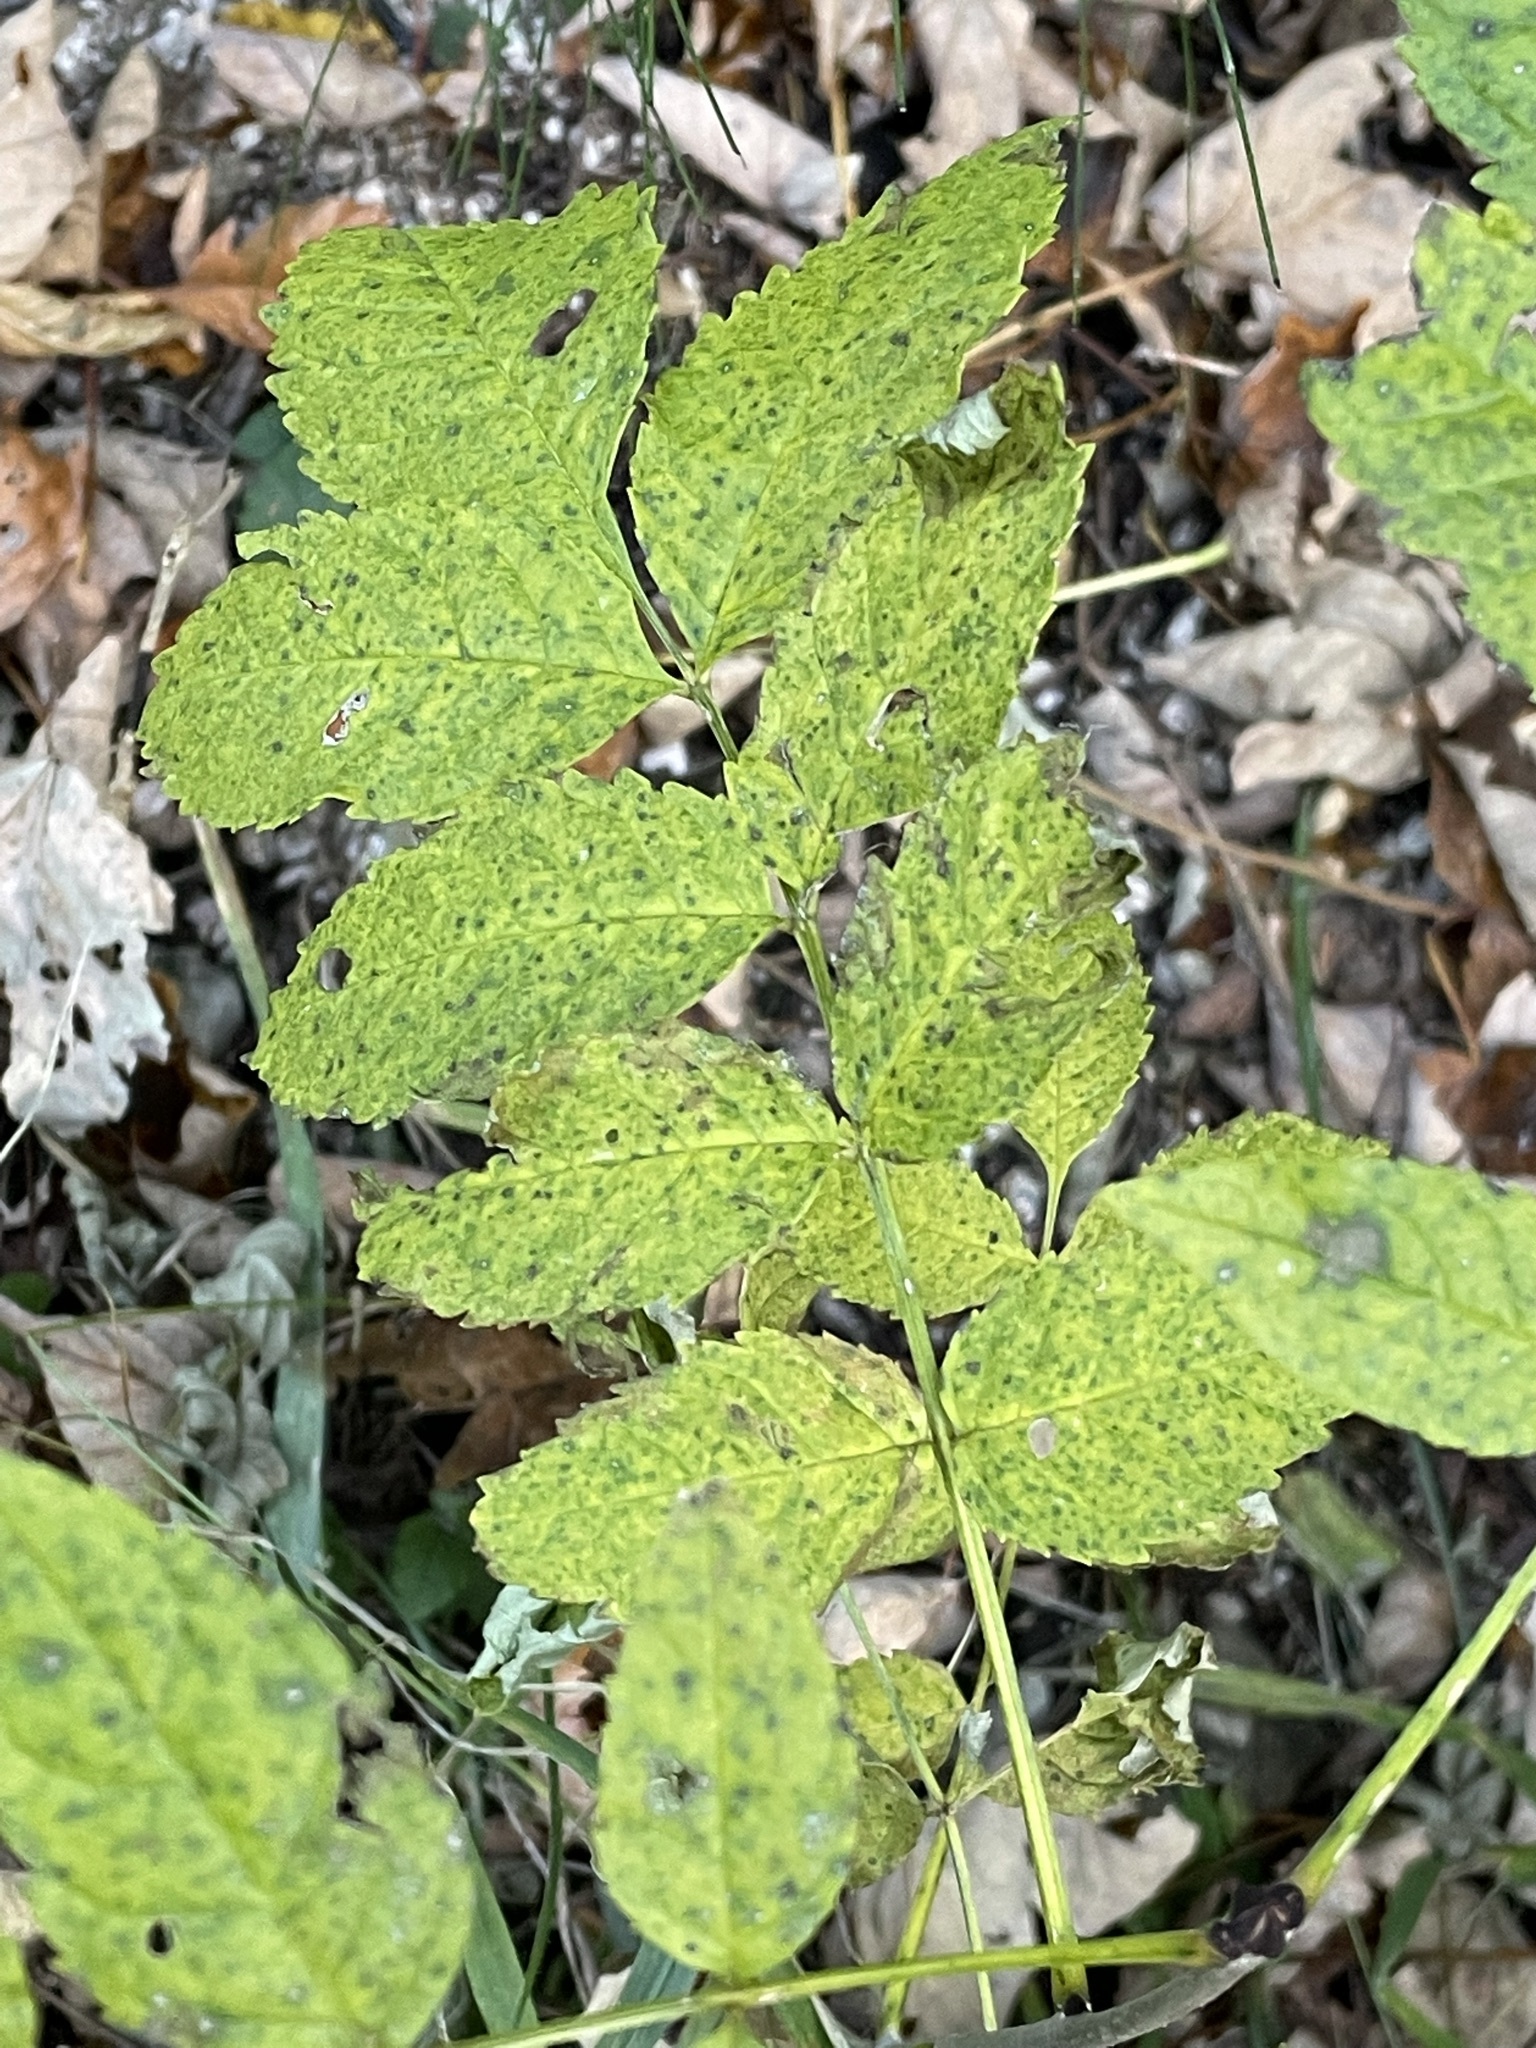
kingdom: Plantae
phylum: Tracheophyta
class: Magnoliopsida
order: Lamiales
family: Oleaceae
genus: Fraxinus
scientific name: Fraxinus excelsior
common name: European ash
